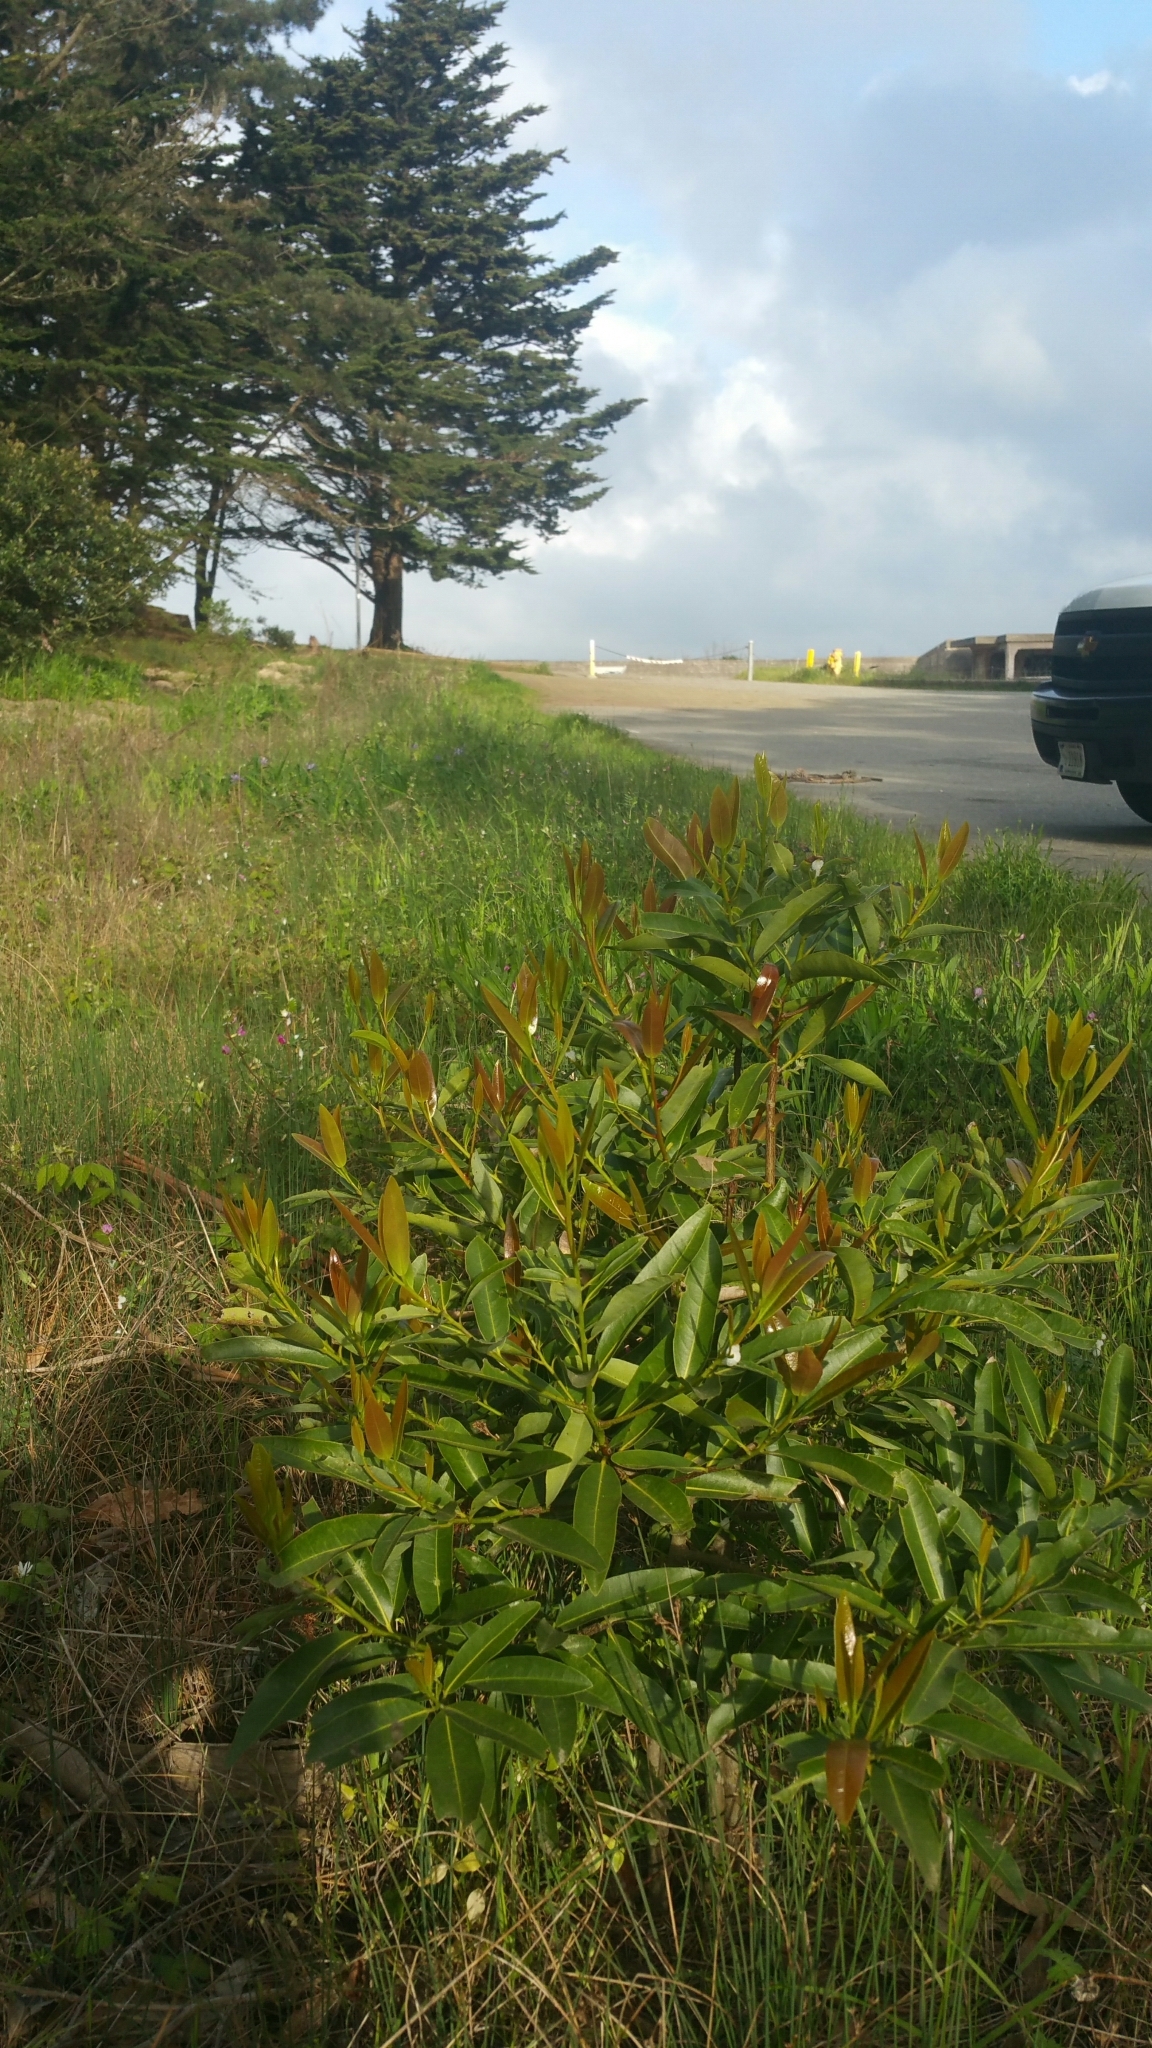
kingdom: Plantae
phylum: Tracheophyta
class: Magnoliopsida
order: Laurales
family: Lauraceae
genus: Umbellularia
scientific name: Umbellularia californica
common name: California bay
